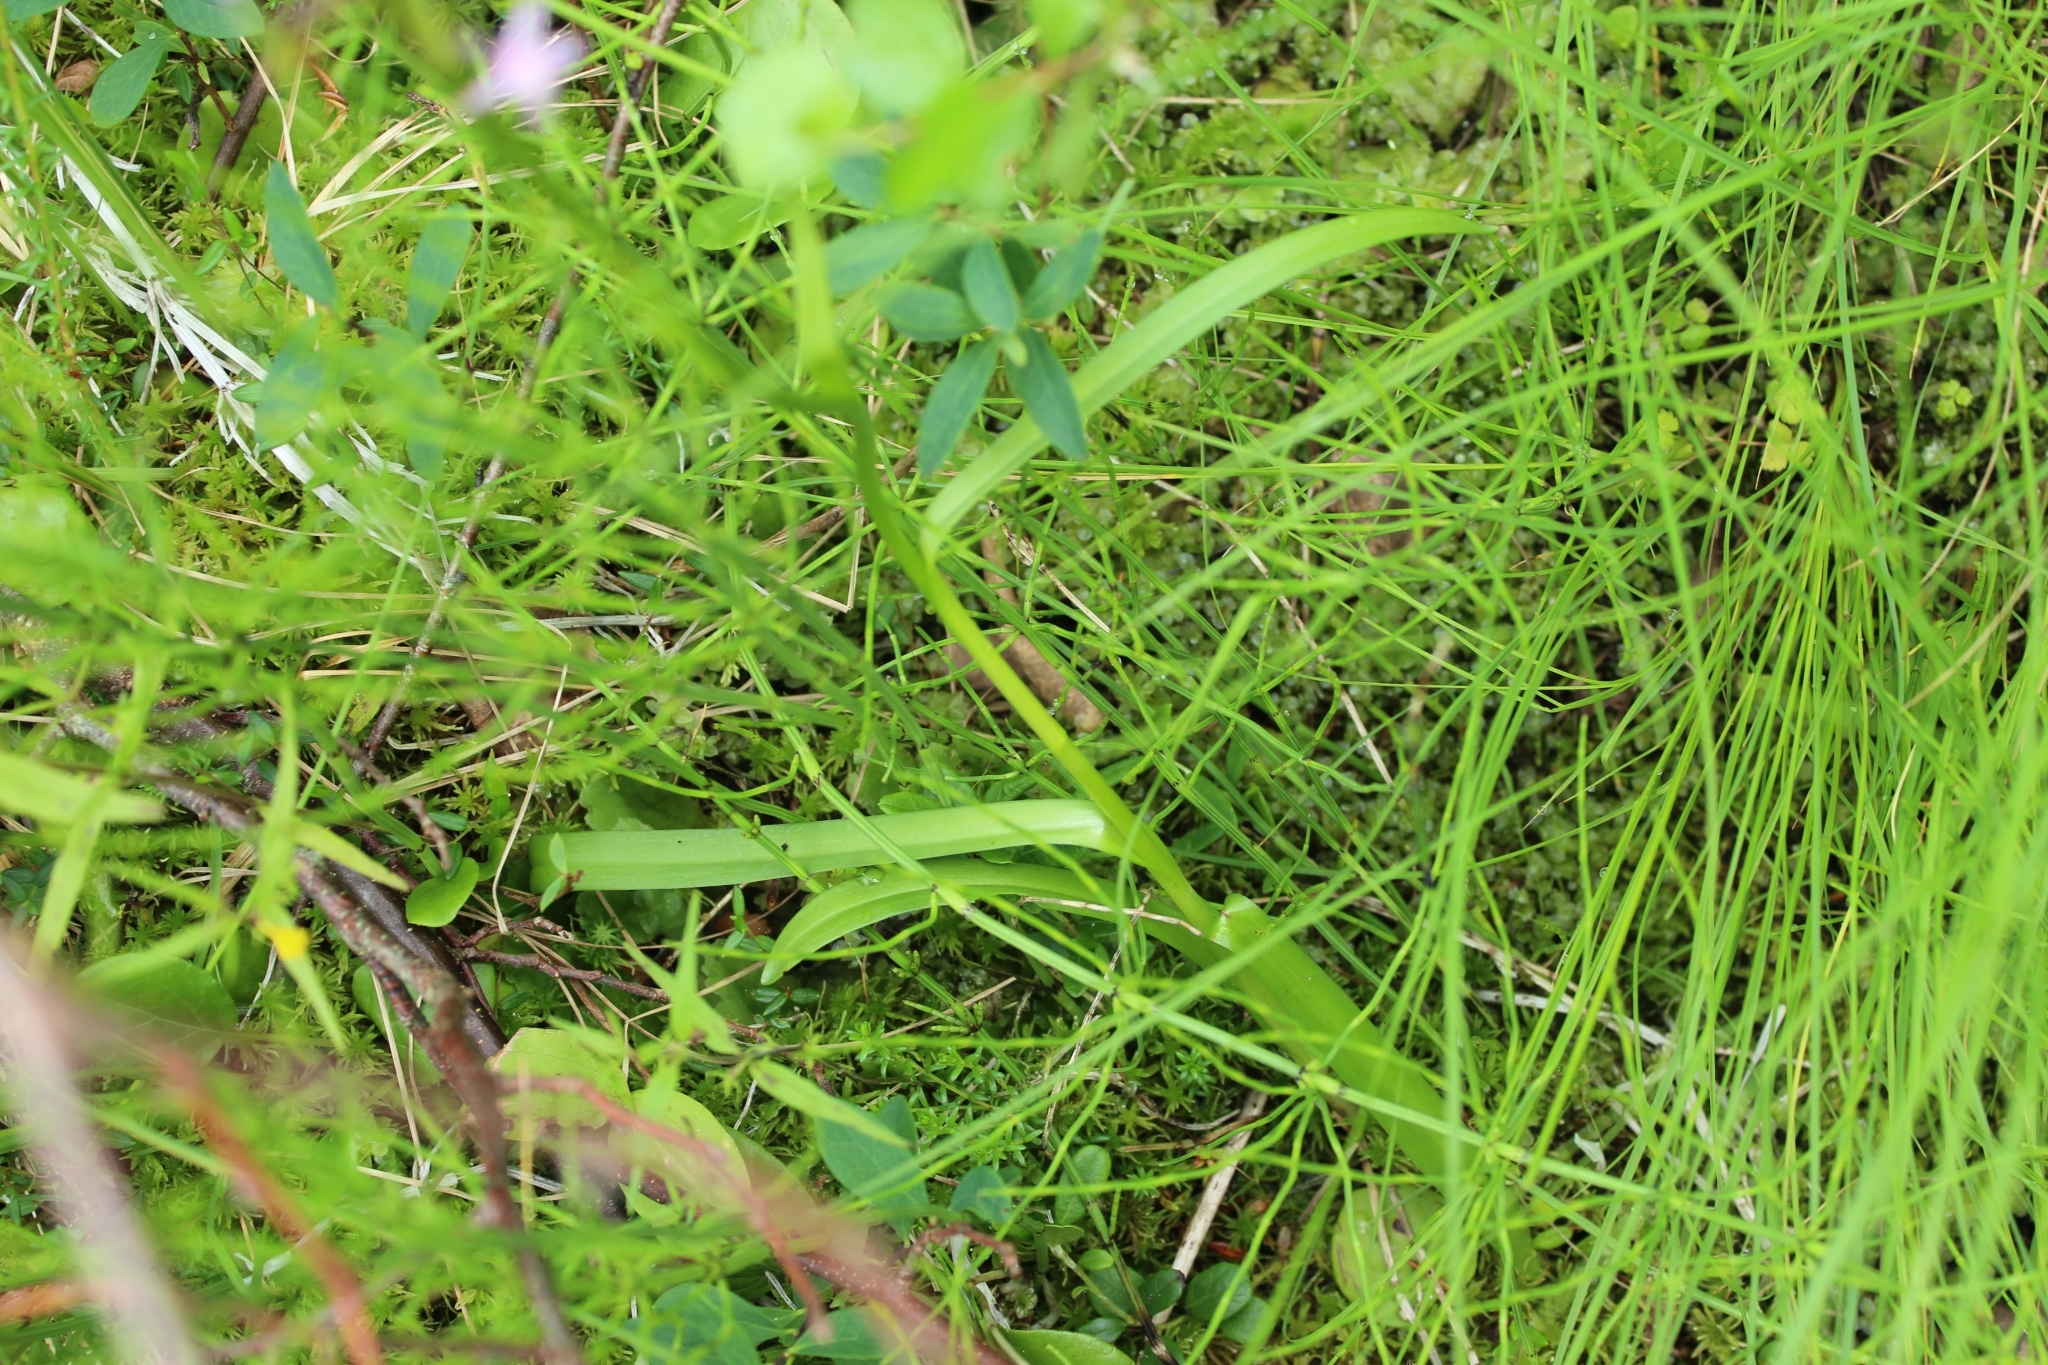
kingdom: Plantae
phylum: Tracheophyta
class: Liliopsida
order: Asparagales
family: Orchidaceae
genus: Gymnadenia
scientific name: Gymnadenia conopsea
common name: Fragrant orchid
